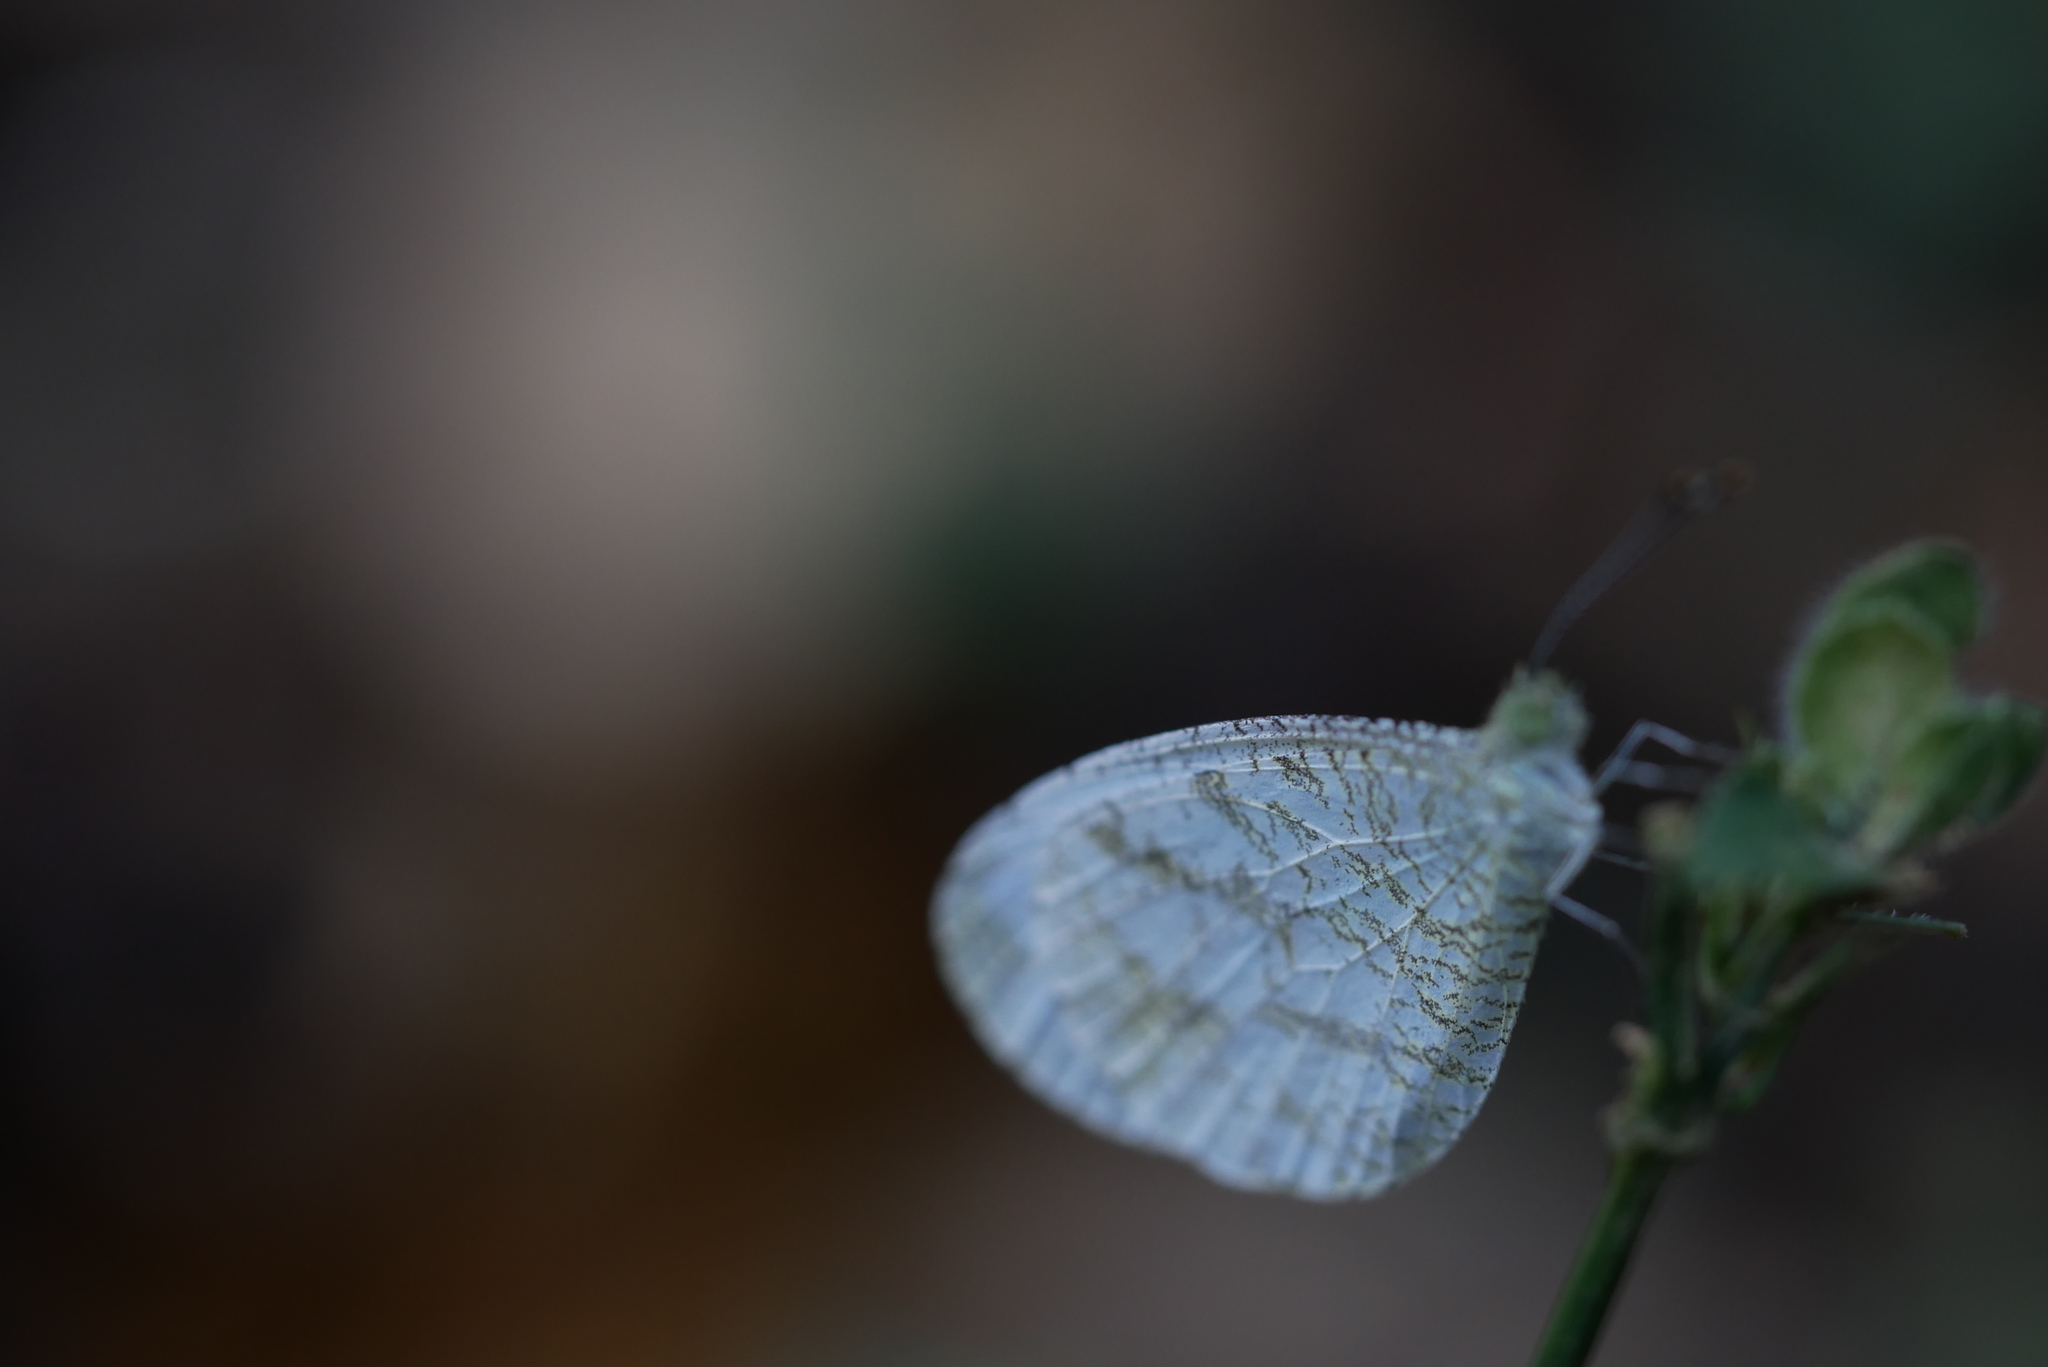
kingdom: Animalia
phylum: Arthropoda
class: Insecta
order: Lepidoptera
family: Pieridae
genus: Leptosia
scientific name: Leptosia nina
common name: Psyche
